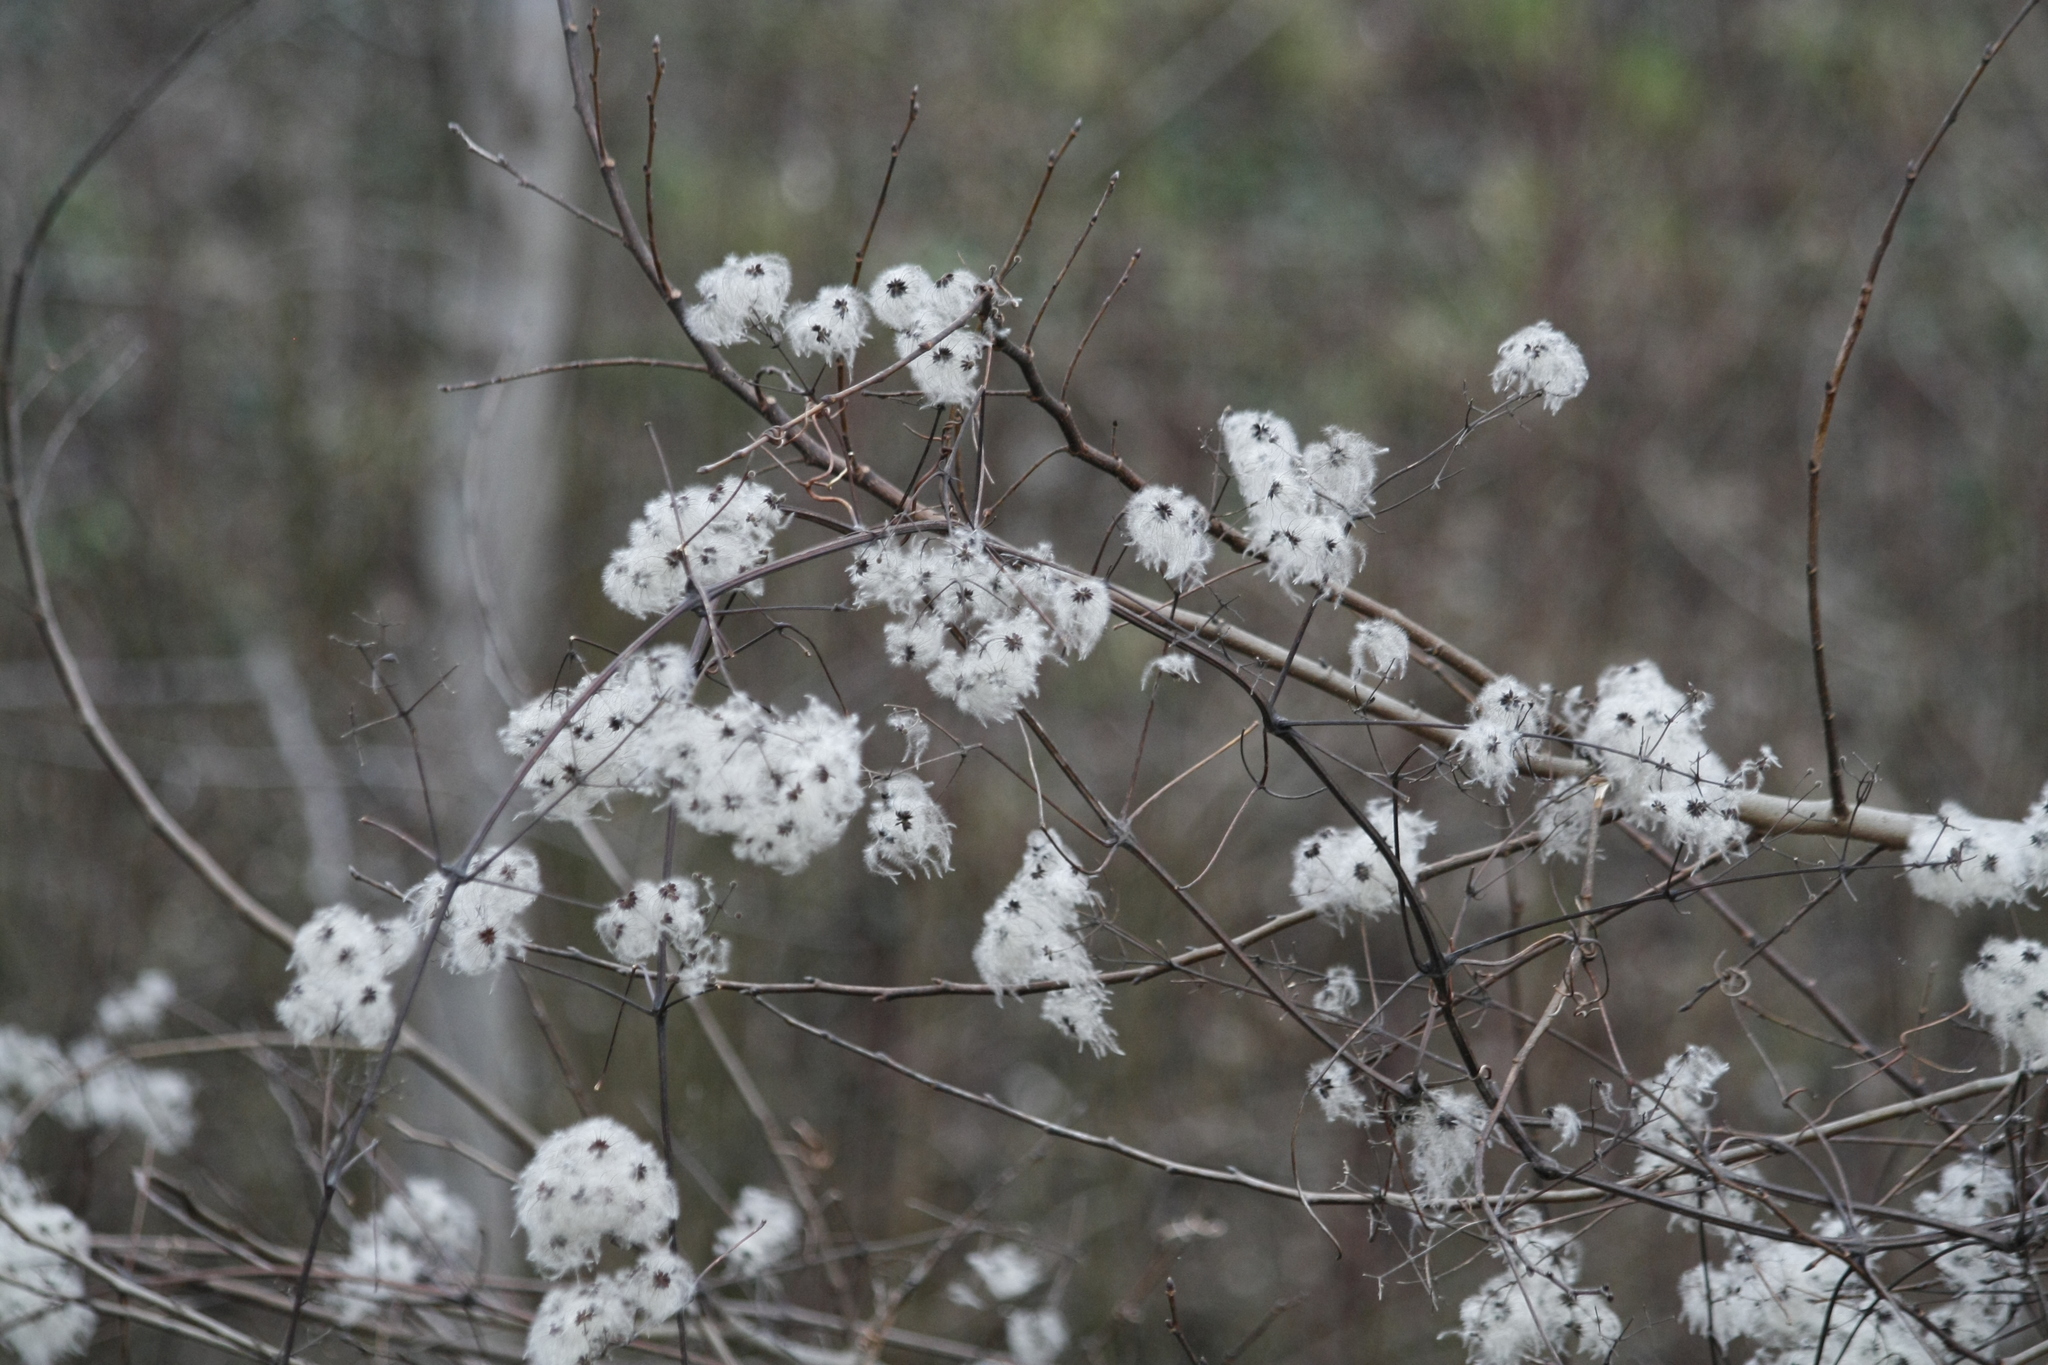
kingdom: Plantae
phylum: Tracheophyta
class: Magnoliopsida
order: Ranunculales
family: Ranunculaceae
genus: Clematis
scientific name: Clematis vitalba
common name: Evergreen clematis
